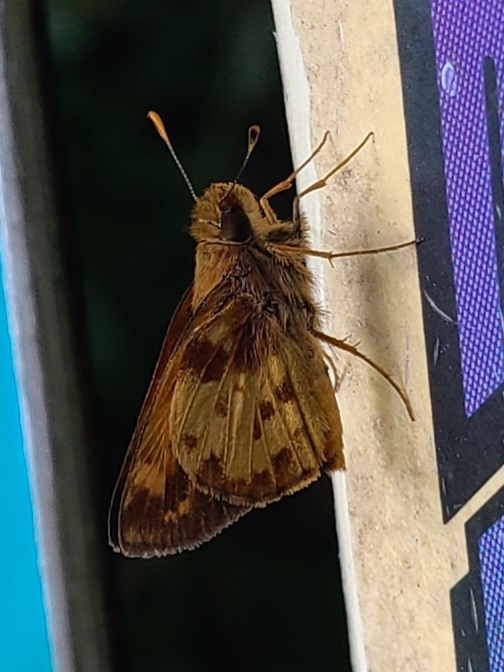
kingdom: Animalia
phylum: Arthropoda
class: Insecta
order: Lepidoptera
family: Hesperiidae
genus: Lon
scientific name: Lon zabulon
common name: Zabulon skipper
